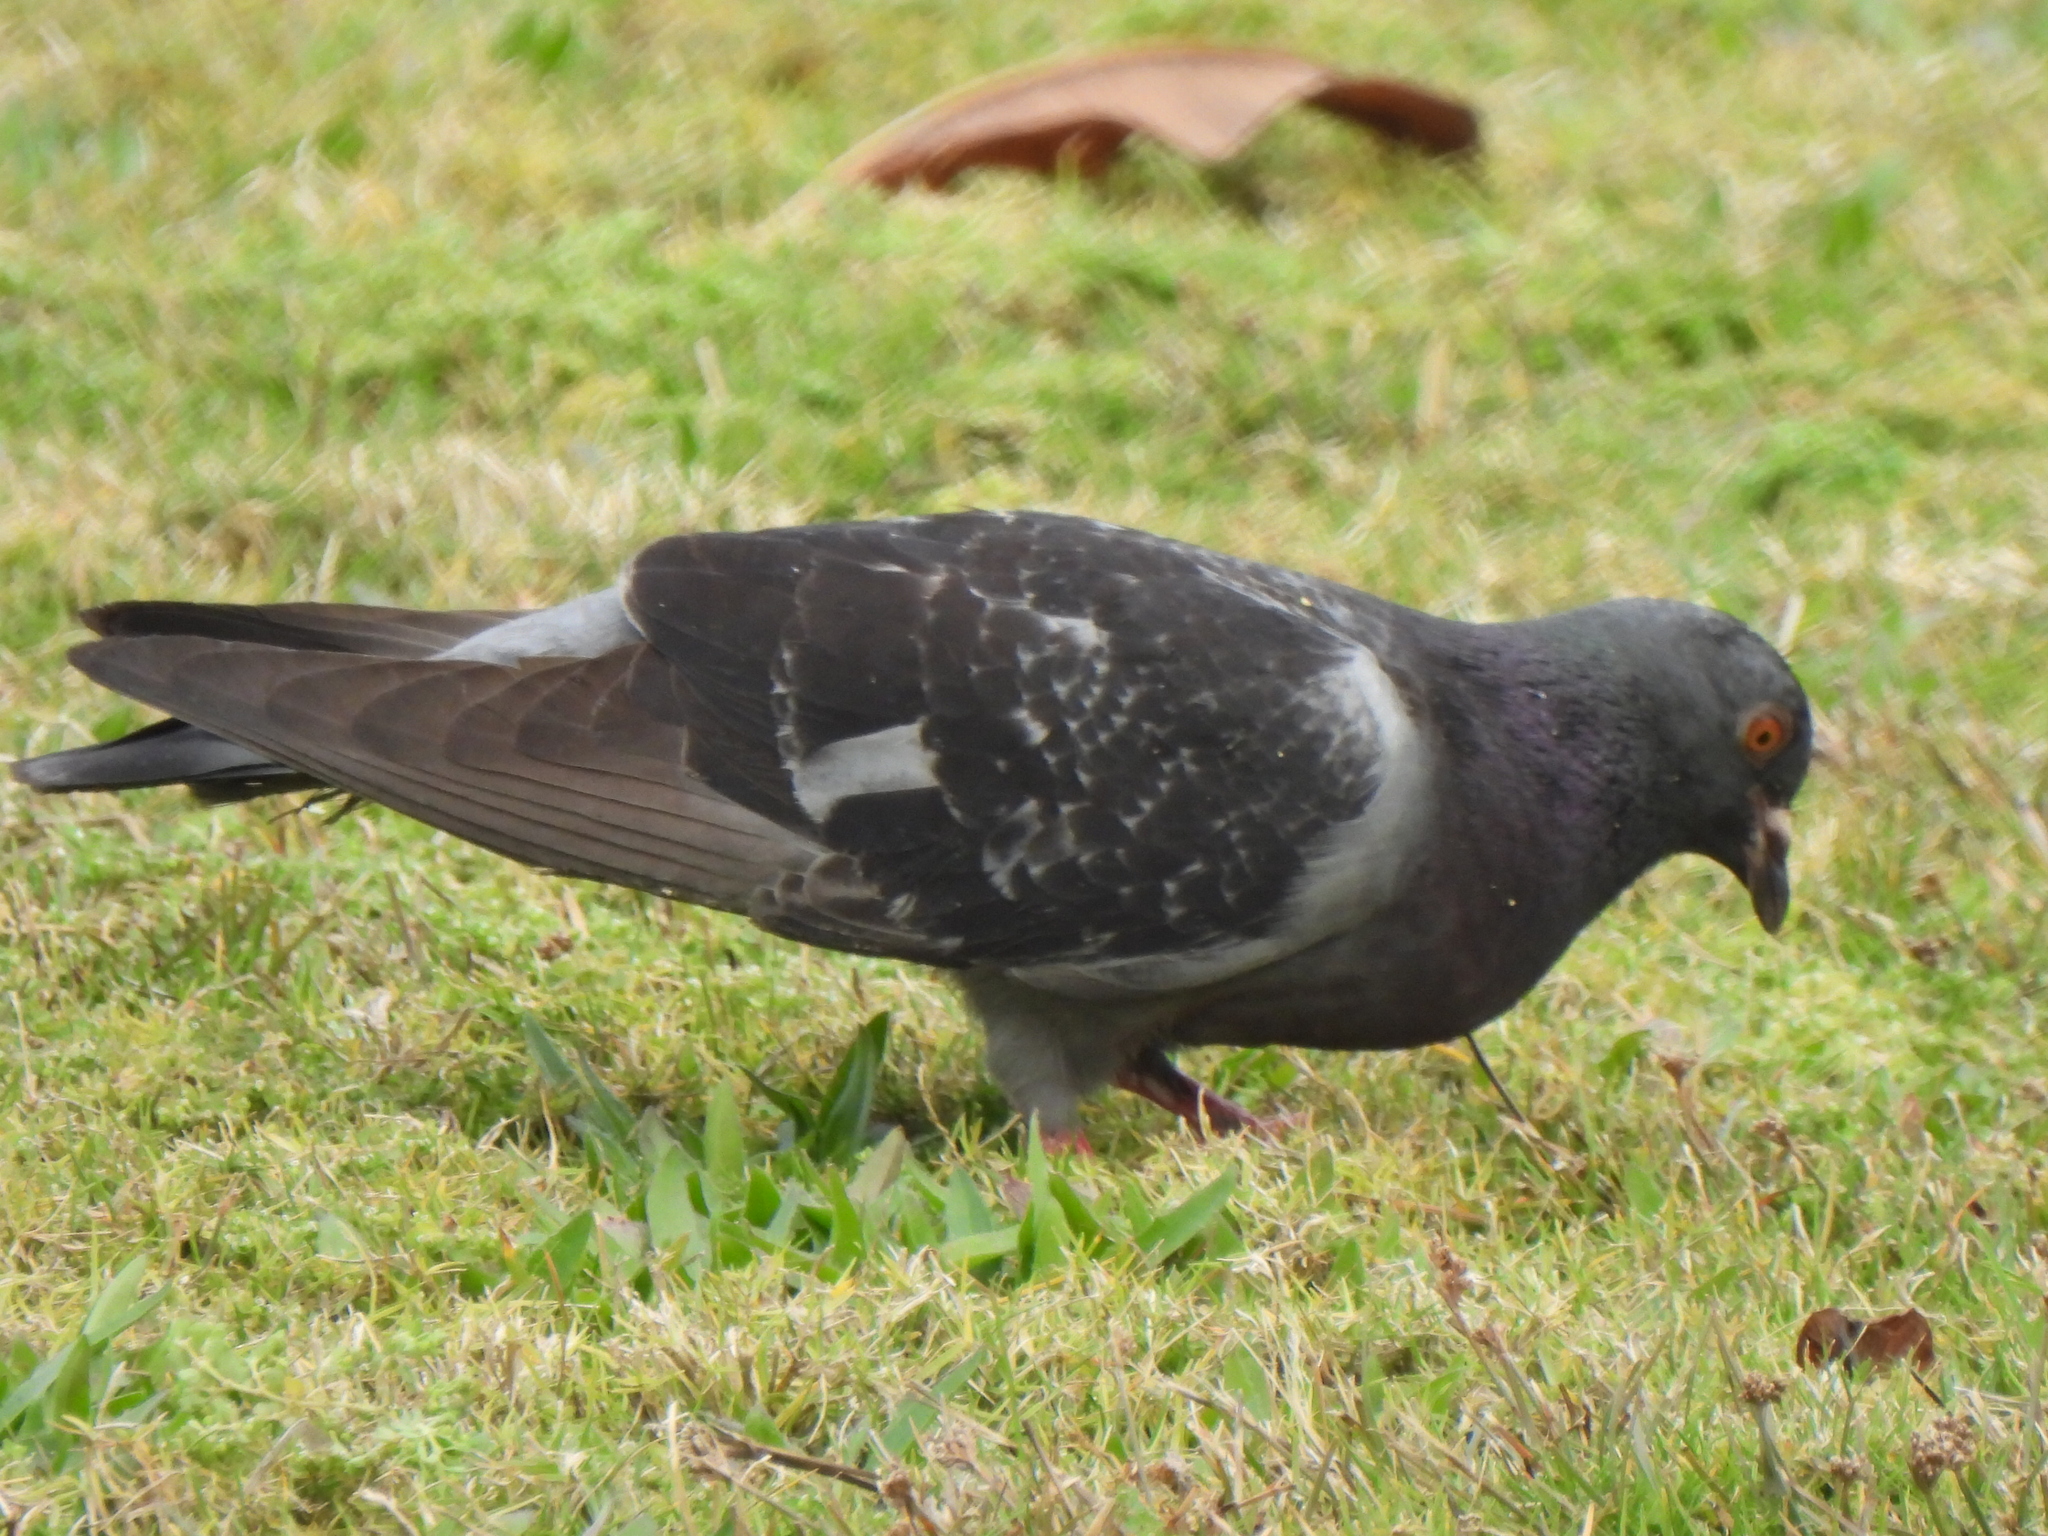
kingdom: Animalia
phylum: Chordata
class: Aves
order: Columbiformes
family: Columbidae
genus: Columba
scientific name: Columba livia
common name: Rock pigeon
